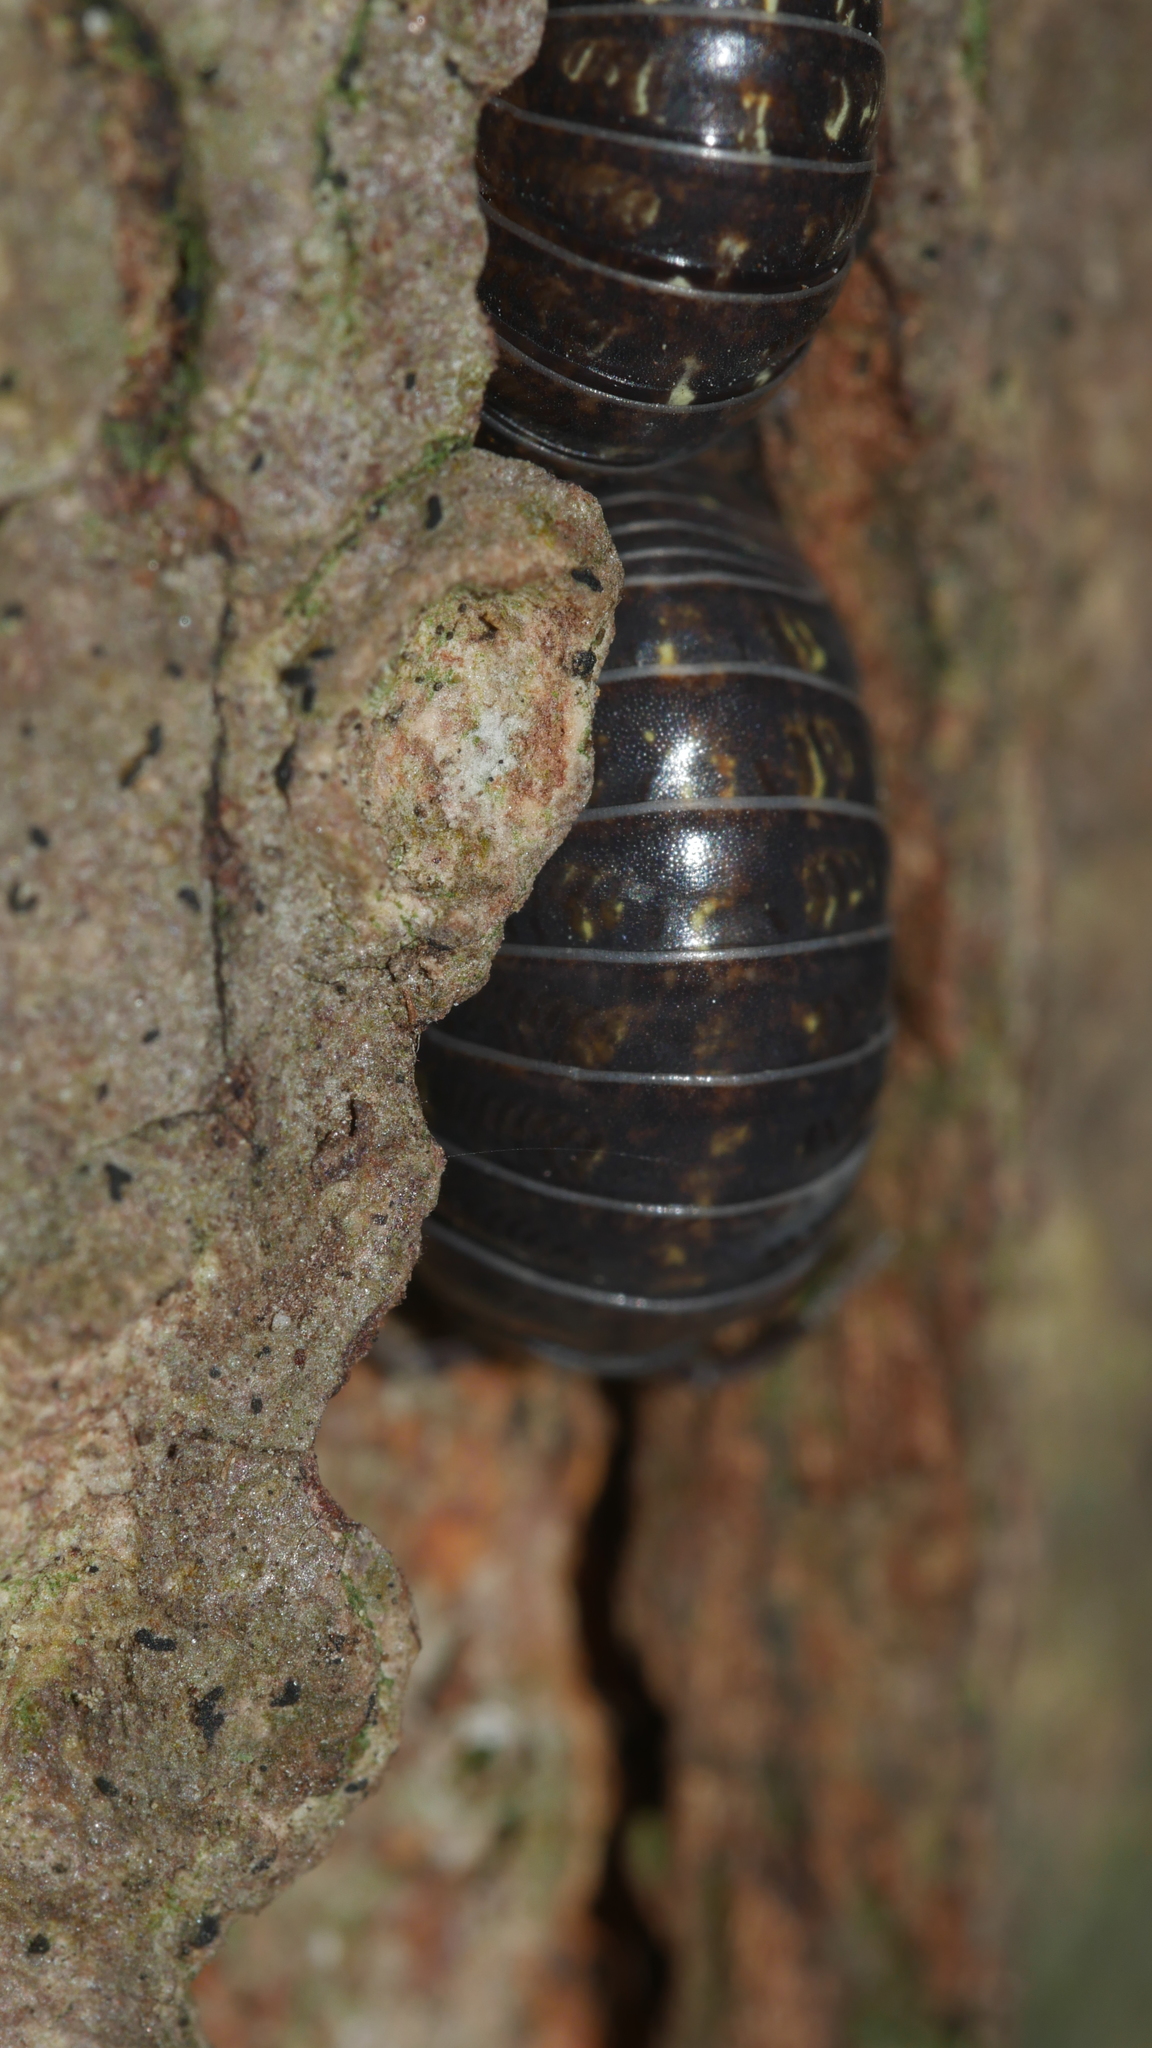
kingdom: Animalia
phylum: Arthropoda
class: Malacostraca
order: Isopoda
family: Armadillidiidae
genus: Armadillidium
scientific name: Armadillidium vulgare
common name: Common pill woodlouse
